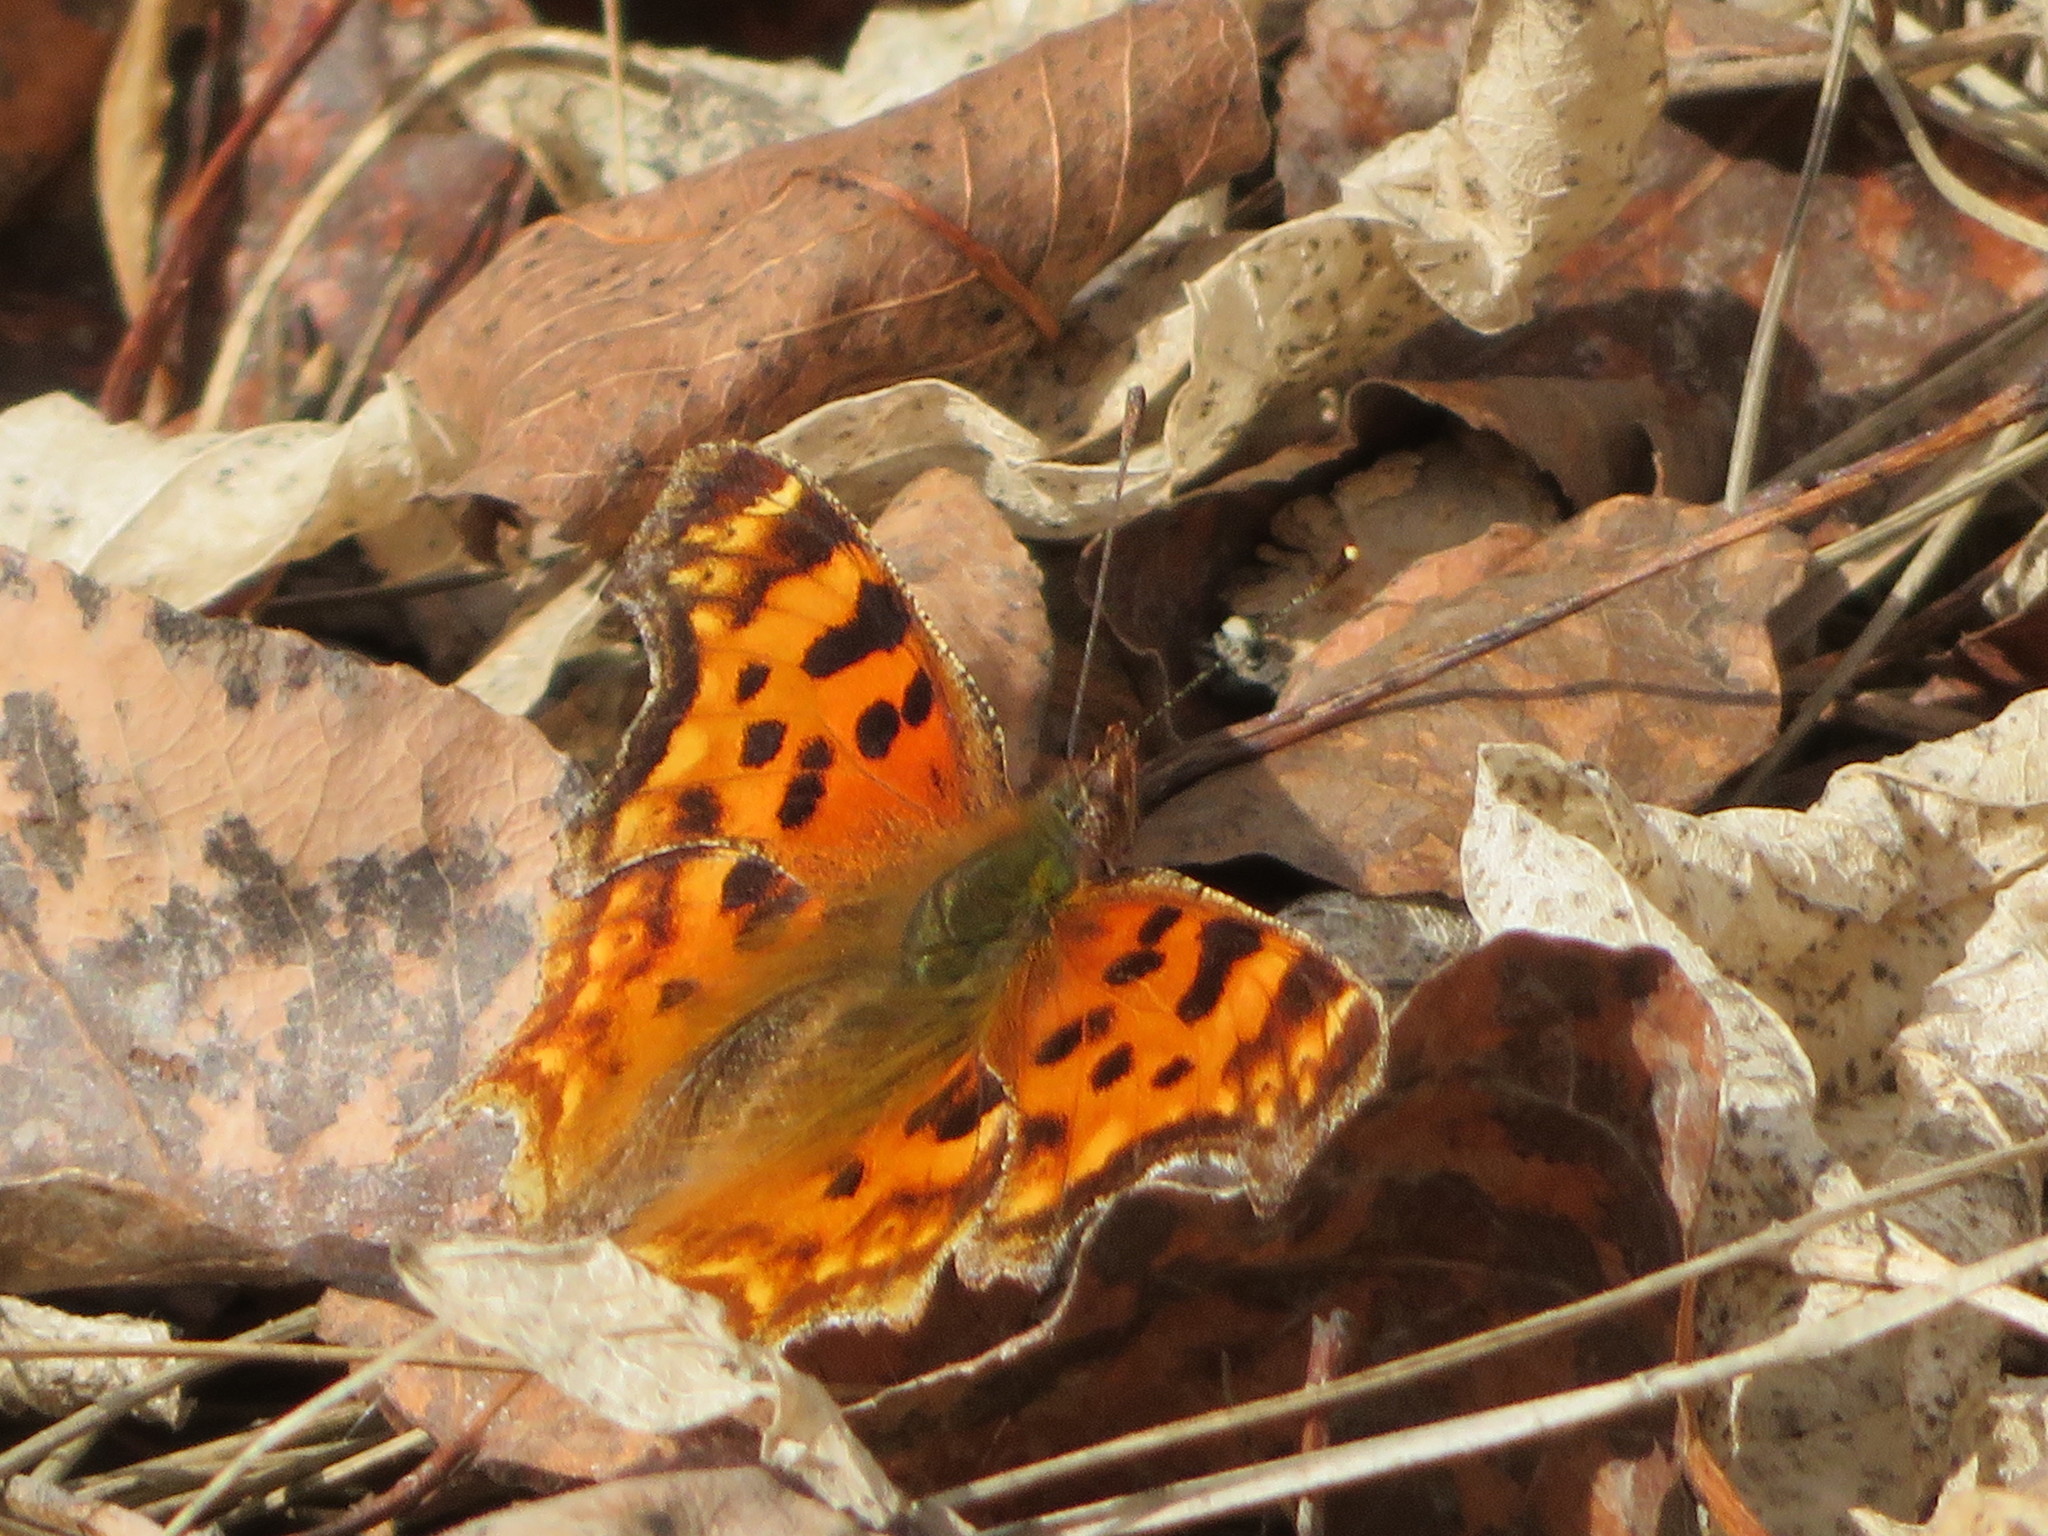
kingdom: Animalia
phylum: Arthropoda
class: Insecta
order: Lepidoptera
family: Nymphalidae
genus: Polygonia
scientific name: Polygonia satyrus
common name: Satyr angle wing
